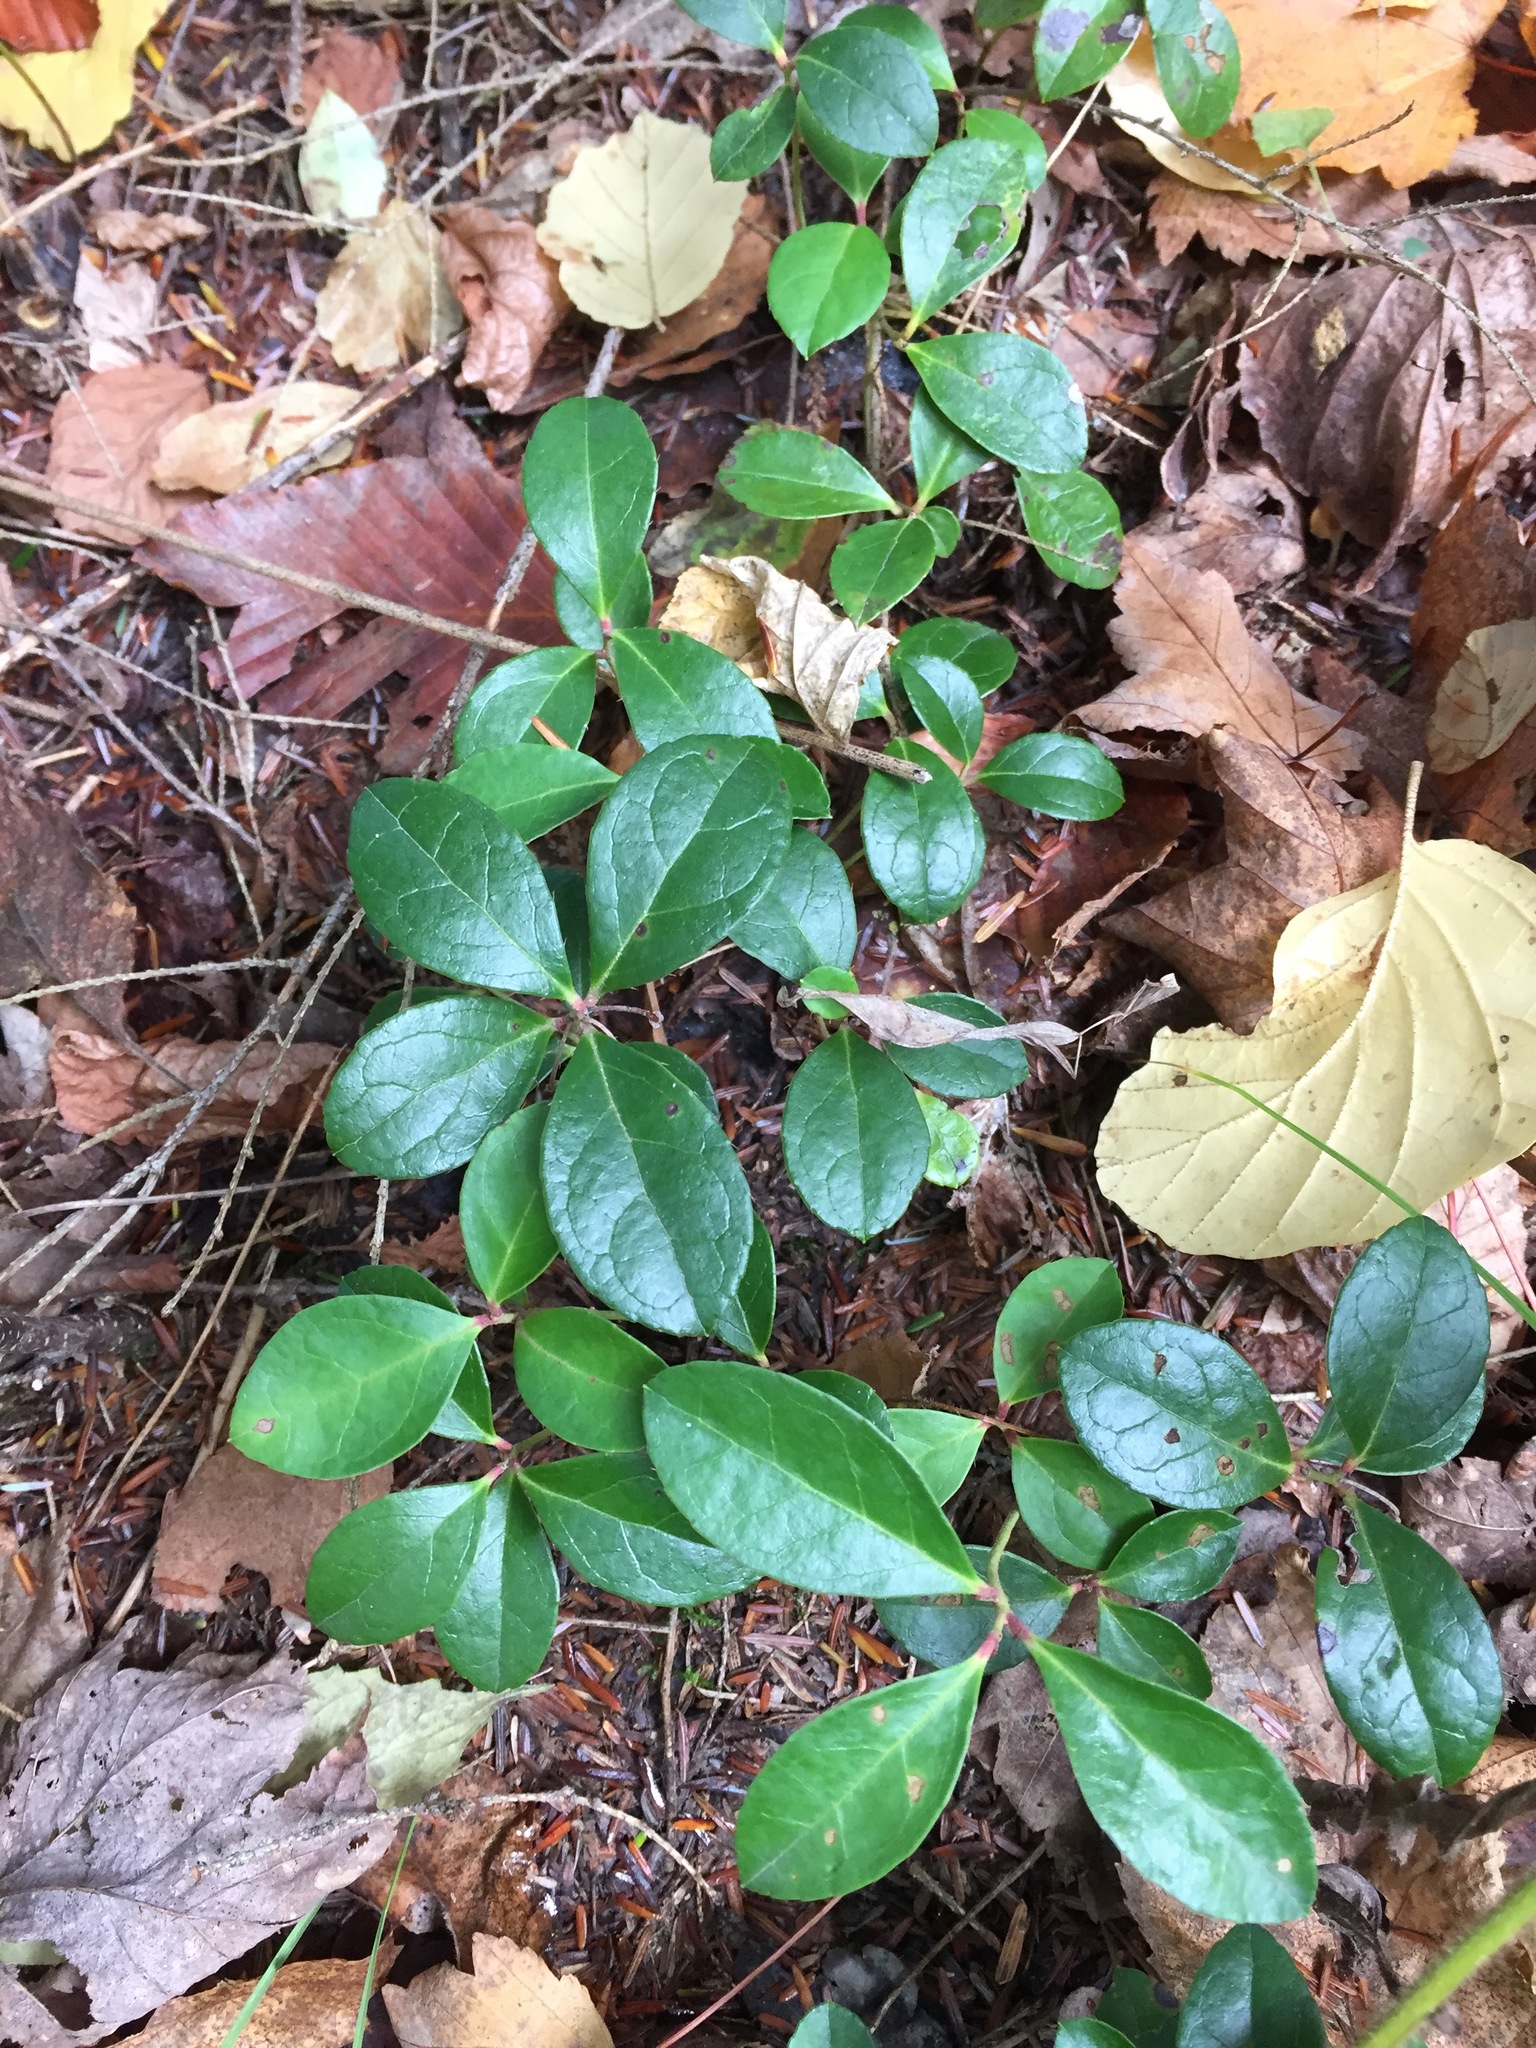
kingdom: Plantae
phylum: Tracheophyta
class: Magnoliopsida
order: Ericales
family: Ericaceae
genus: Gaultheria
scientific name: Gaultheria procumbens
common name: Checkerberry
